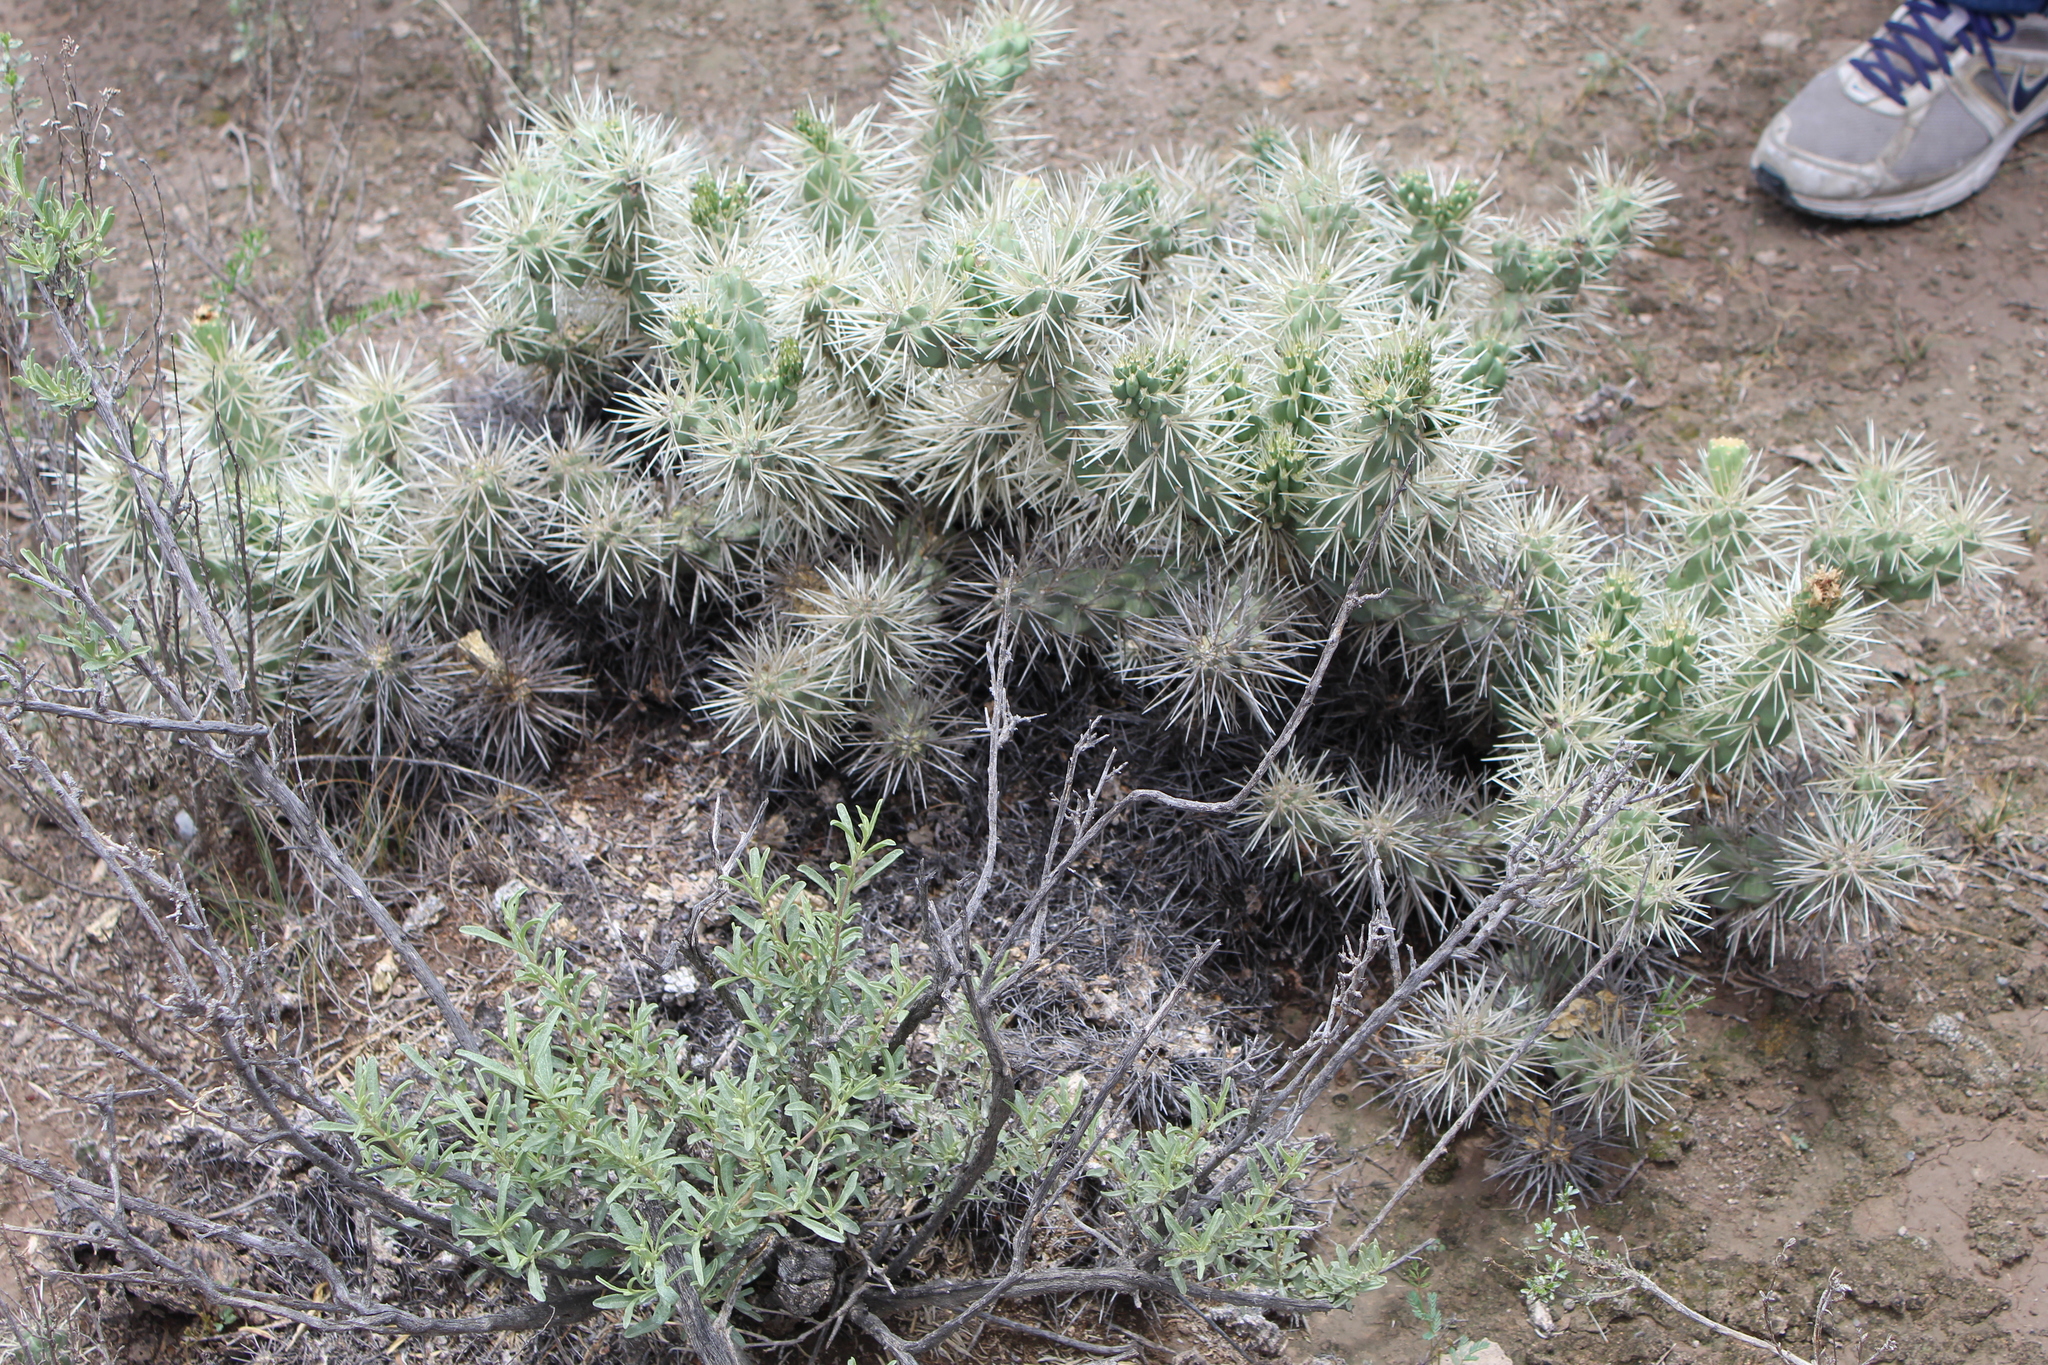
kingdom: Plantae
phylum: Tracheophyta
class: Magnoliopsida
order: Caryophyllales
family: Cactaceae
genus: Cylindropuntia
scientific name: Cylindropuntia tunicata
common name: Sheathed cholla
